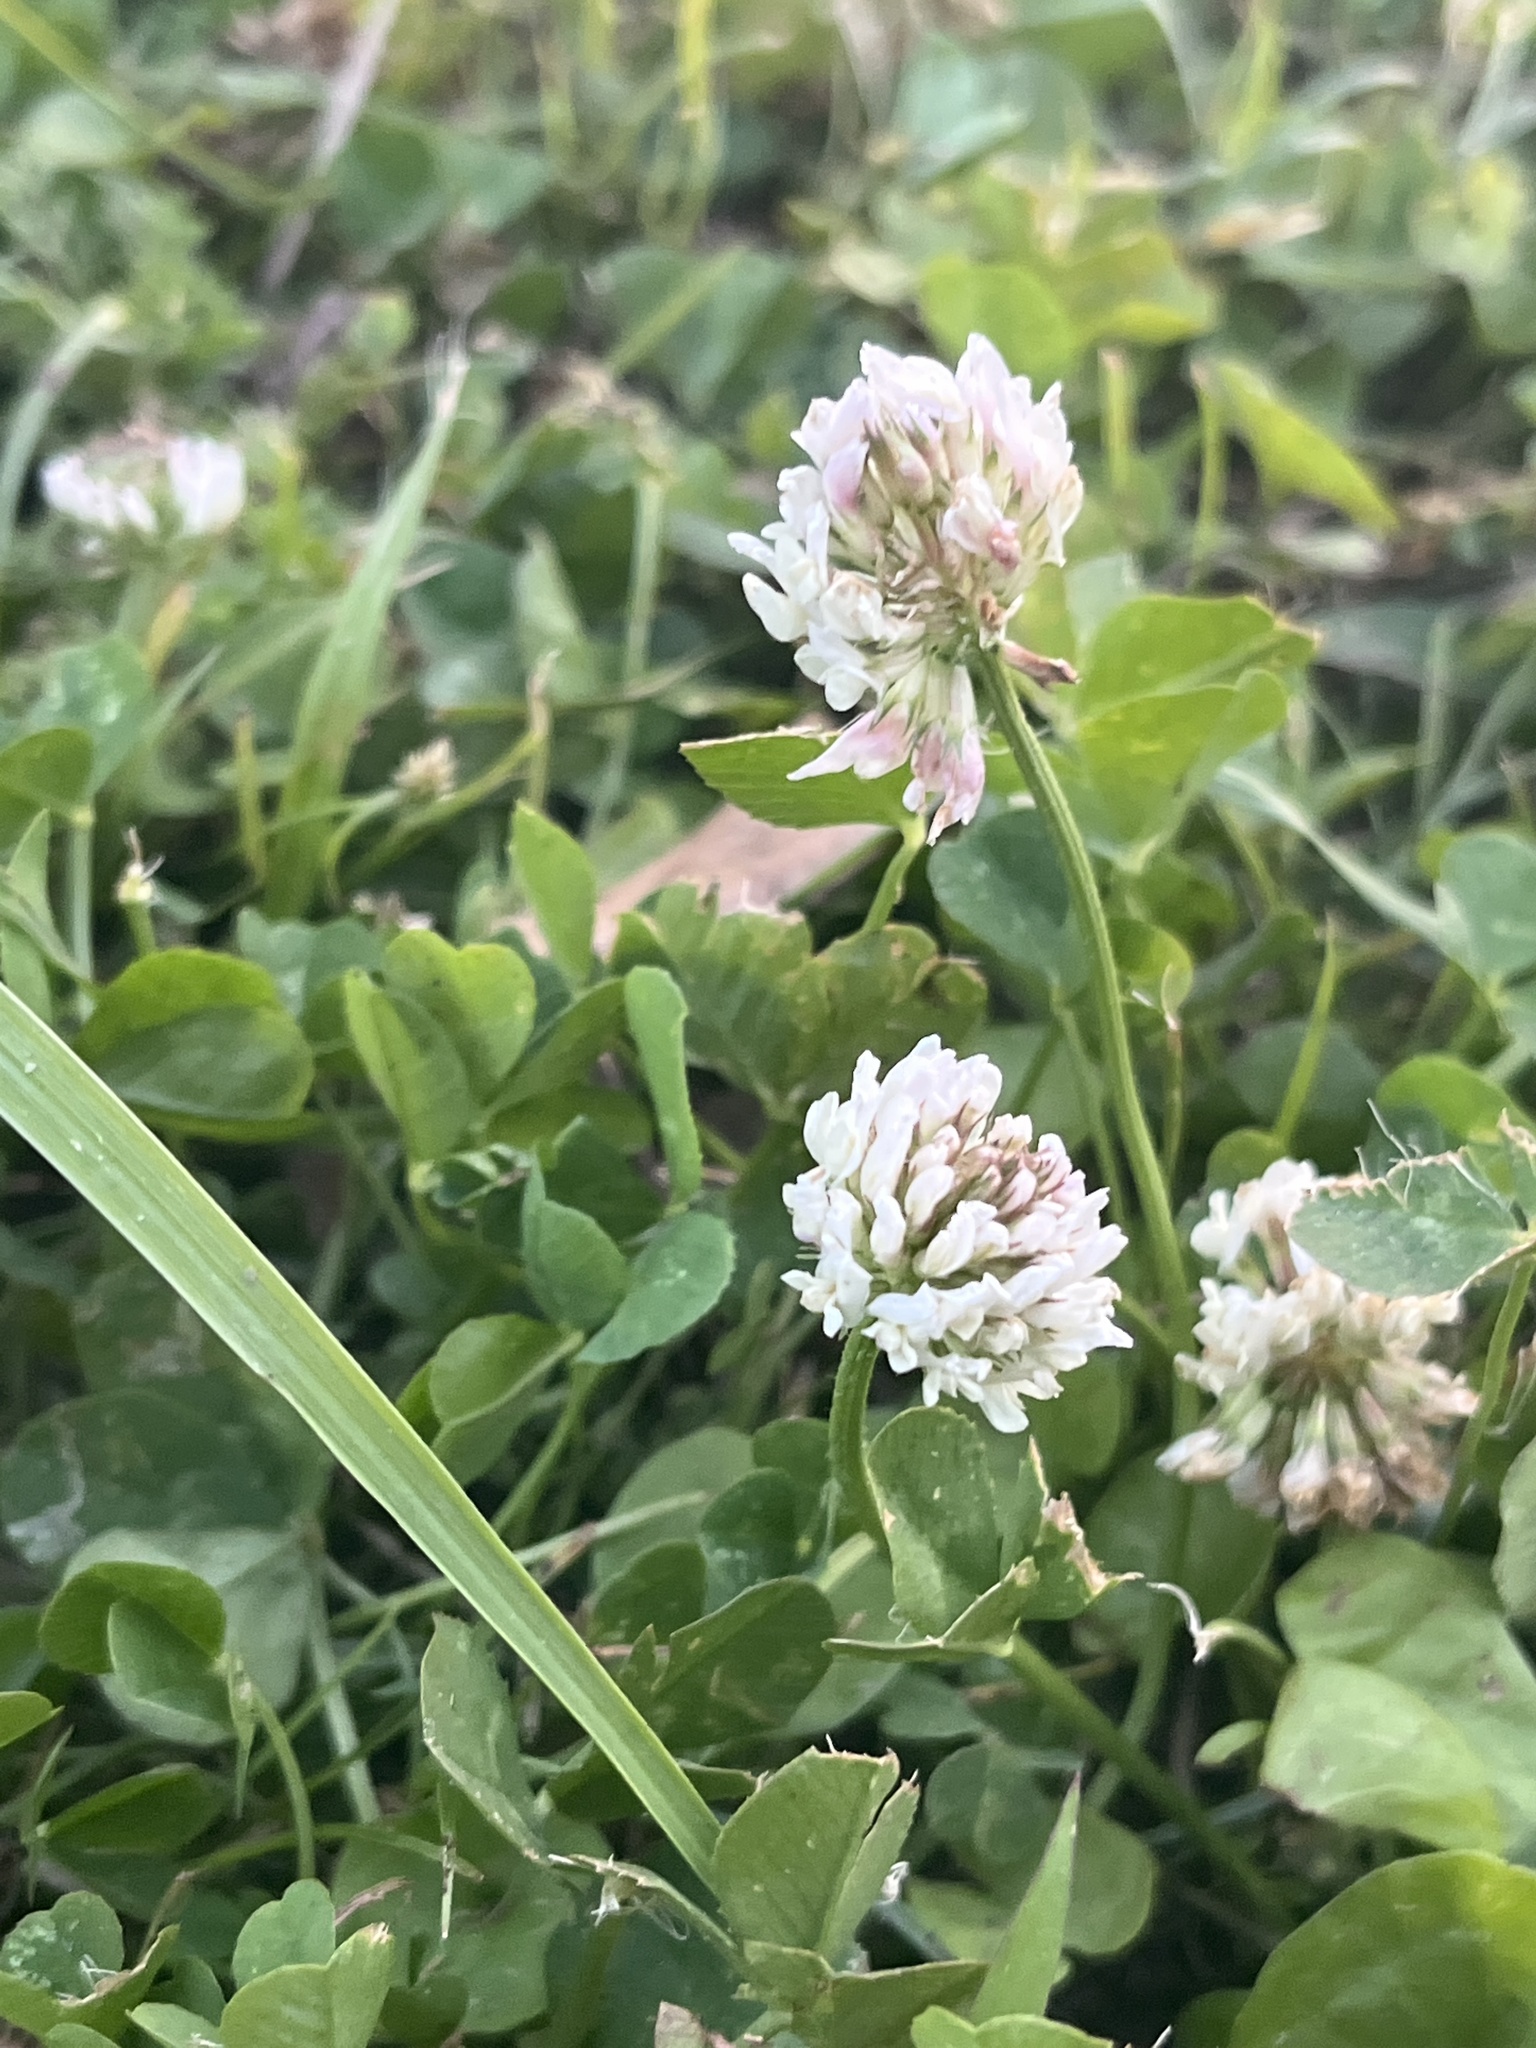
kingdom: Plantae
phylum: Tracheophyta
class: Magnoliopsida
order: Fabales
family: Fabaceae
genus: Trifolium
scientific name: Trifolium repens
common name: White clover
